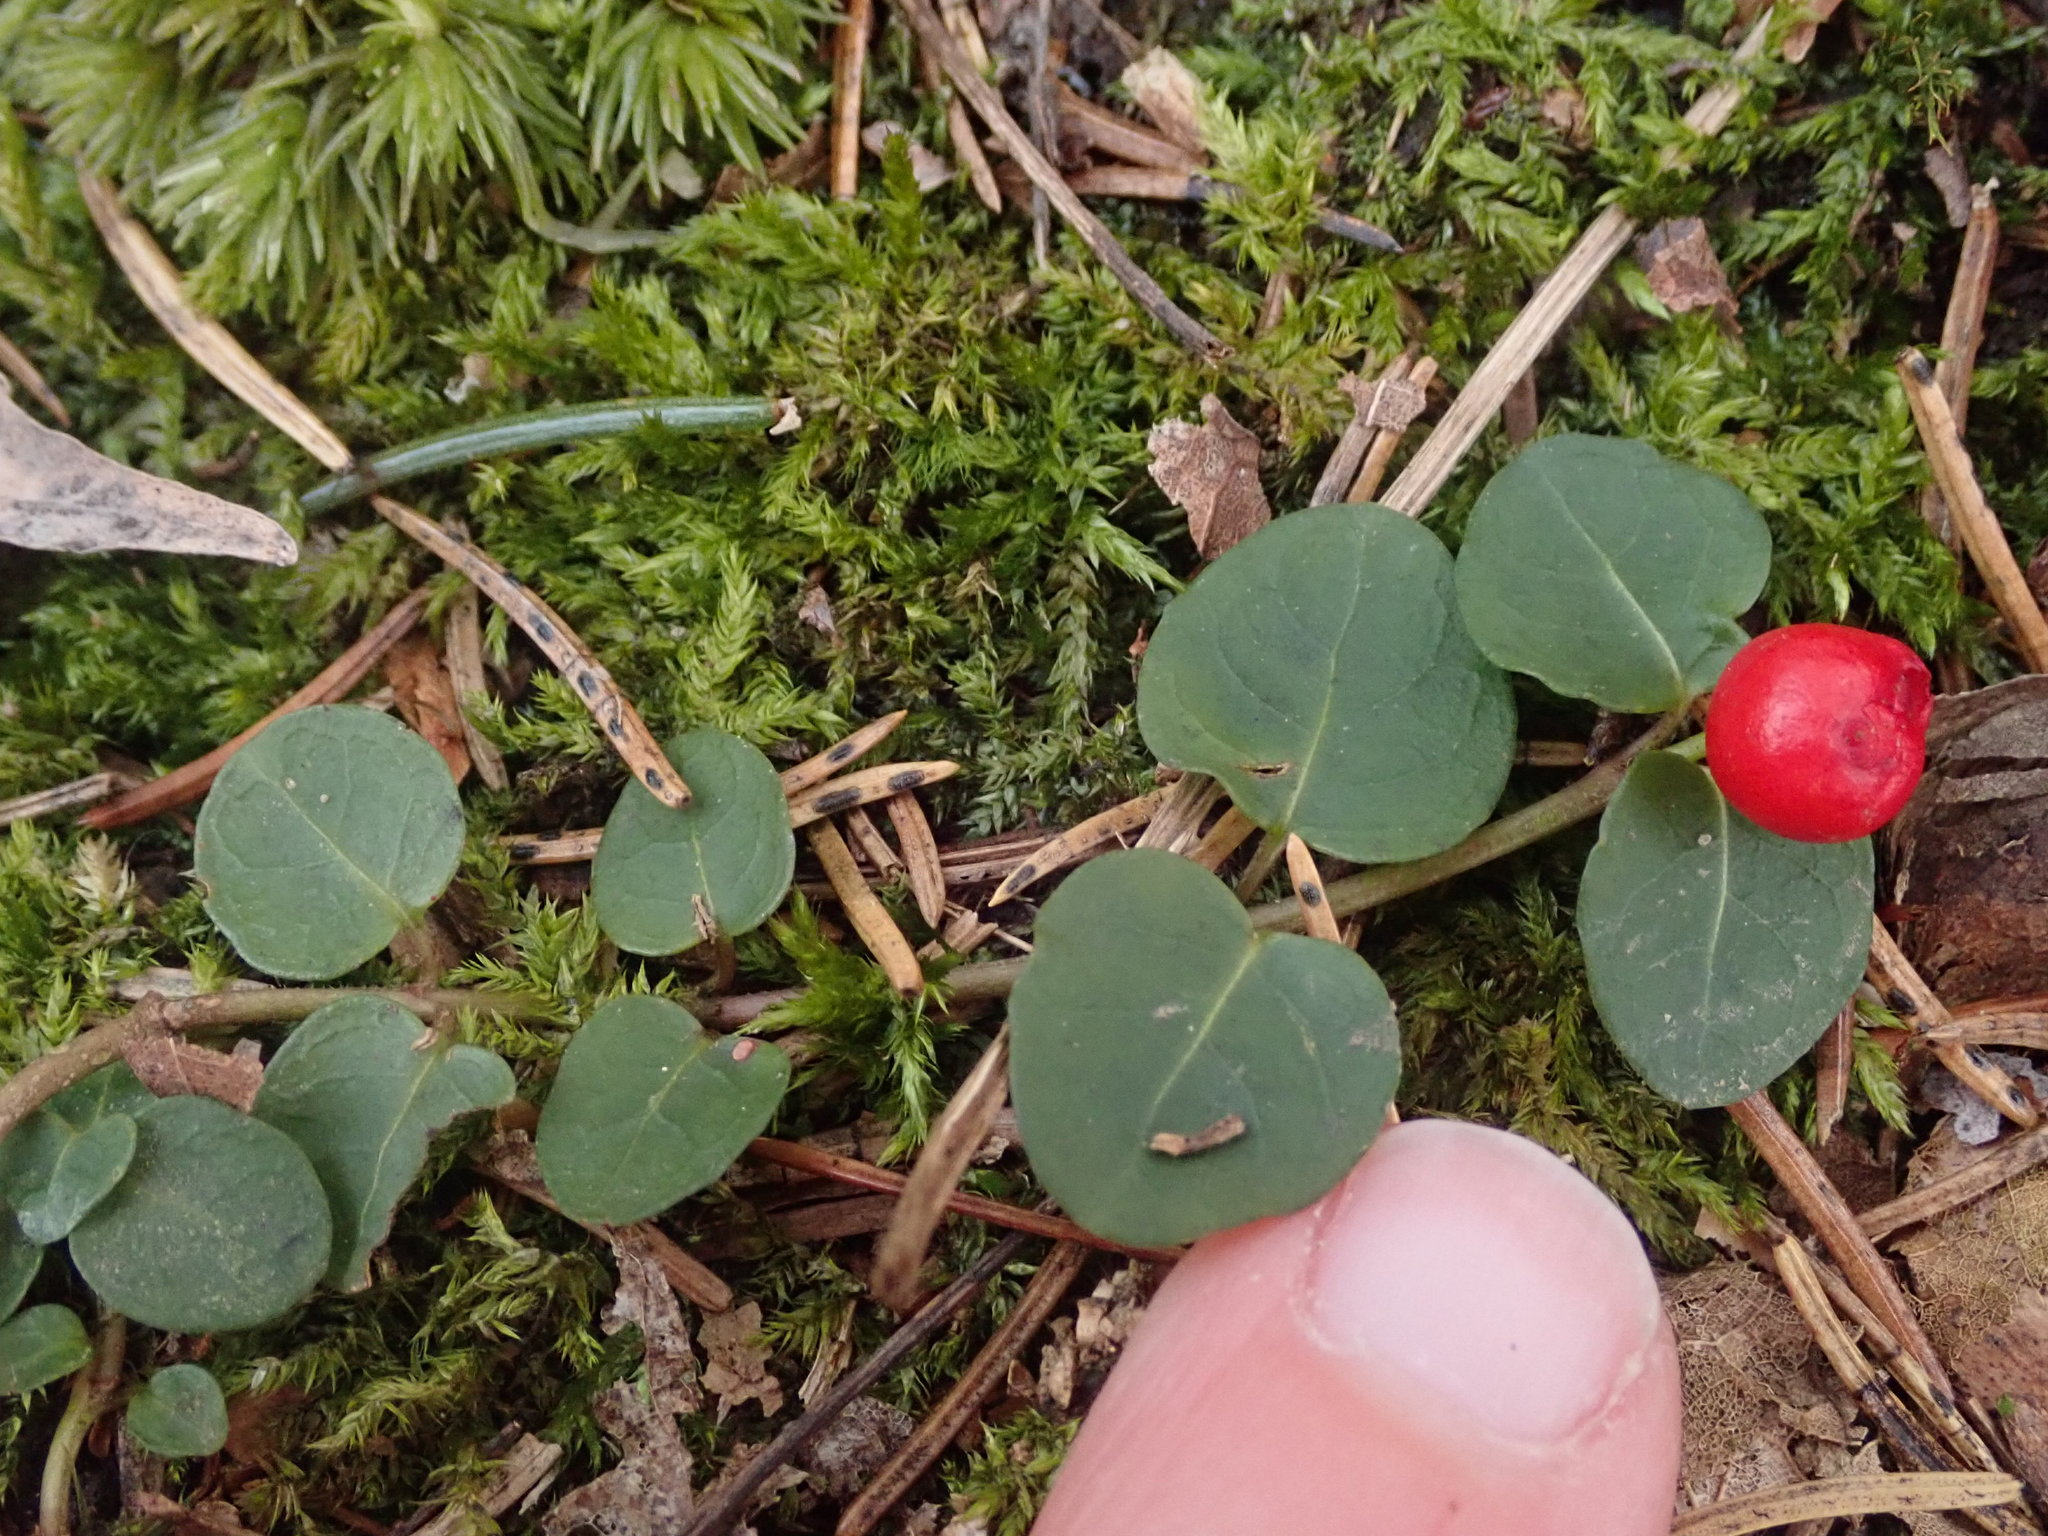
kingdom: Plantae
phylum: Tracheophyta
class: Magnoliopsida
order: Gentianales
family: Rubiaceae
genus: Mitchella
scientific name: Mitchella repens
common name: Partridge-berry
